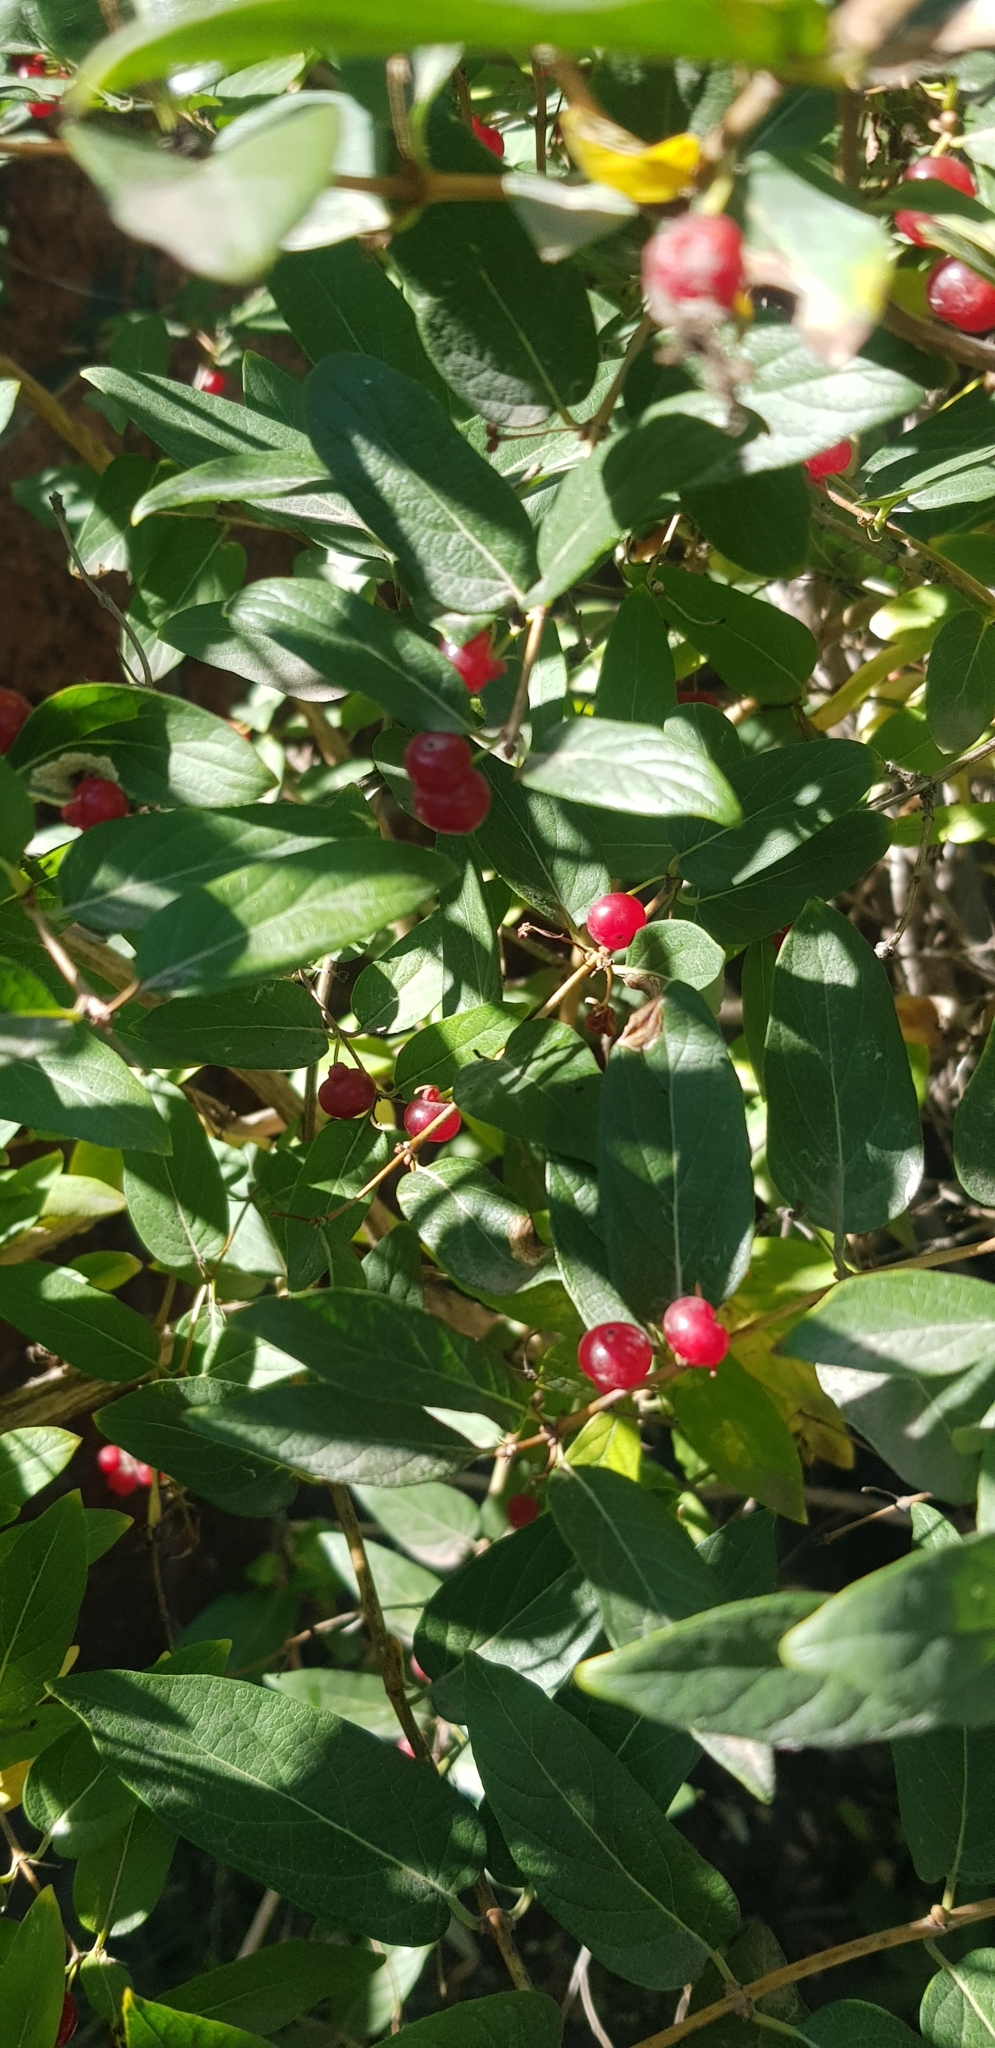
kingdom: Plantae
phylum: Tracheophyta
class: Magnoliopsida
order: Dipsacales
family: Caprifoliaceae
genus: Lonicera
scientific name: Lonicera tatarica
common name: Tatarian honeysuckle
